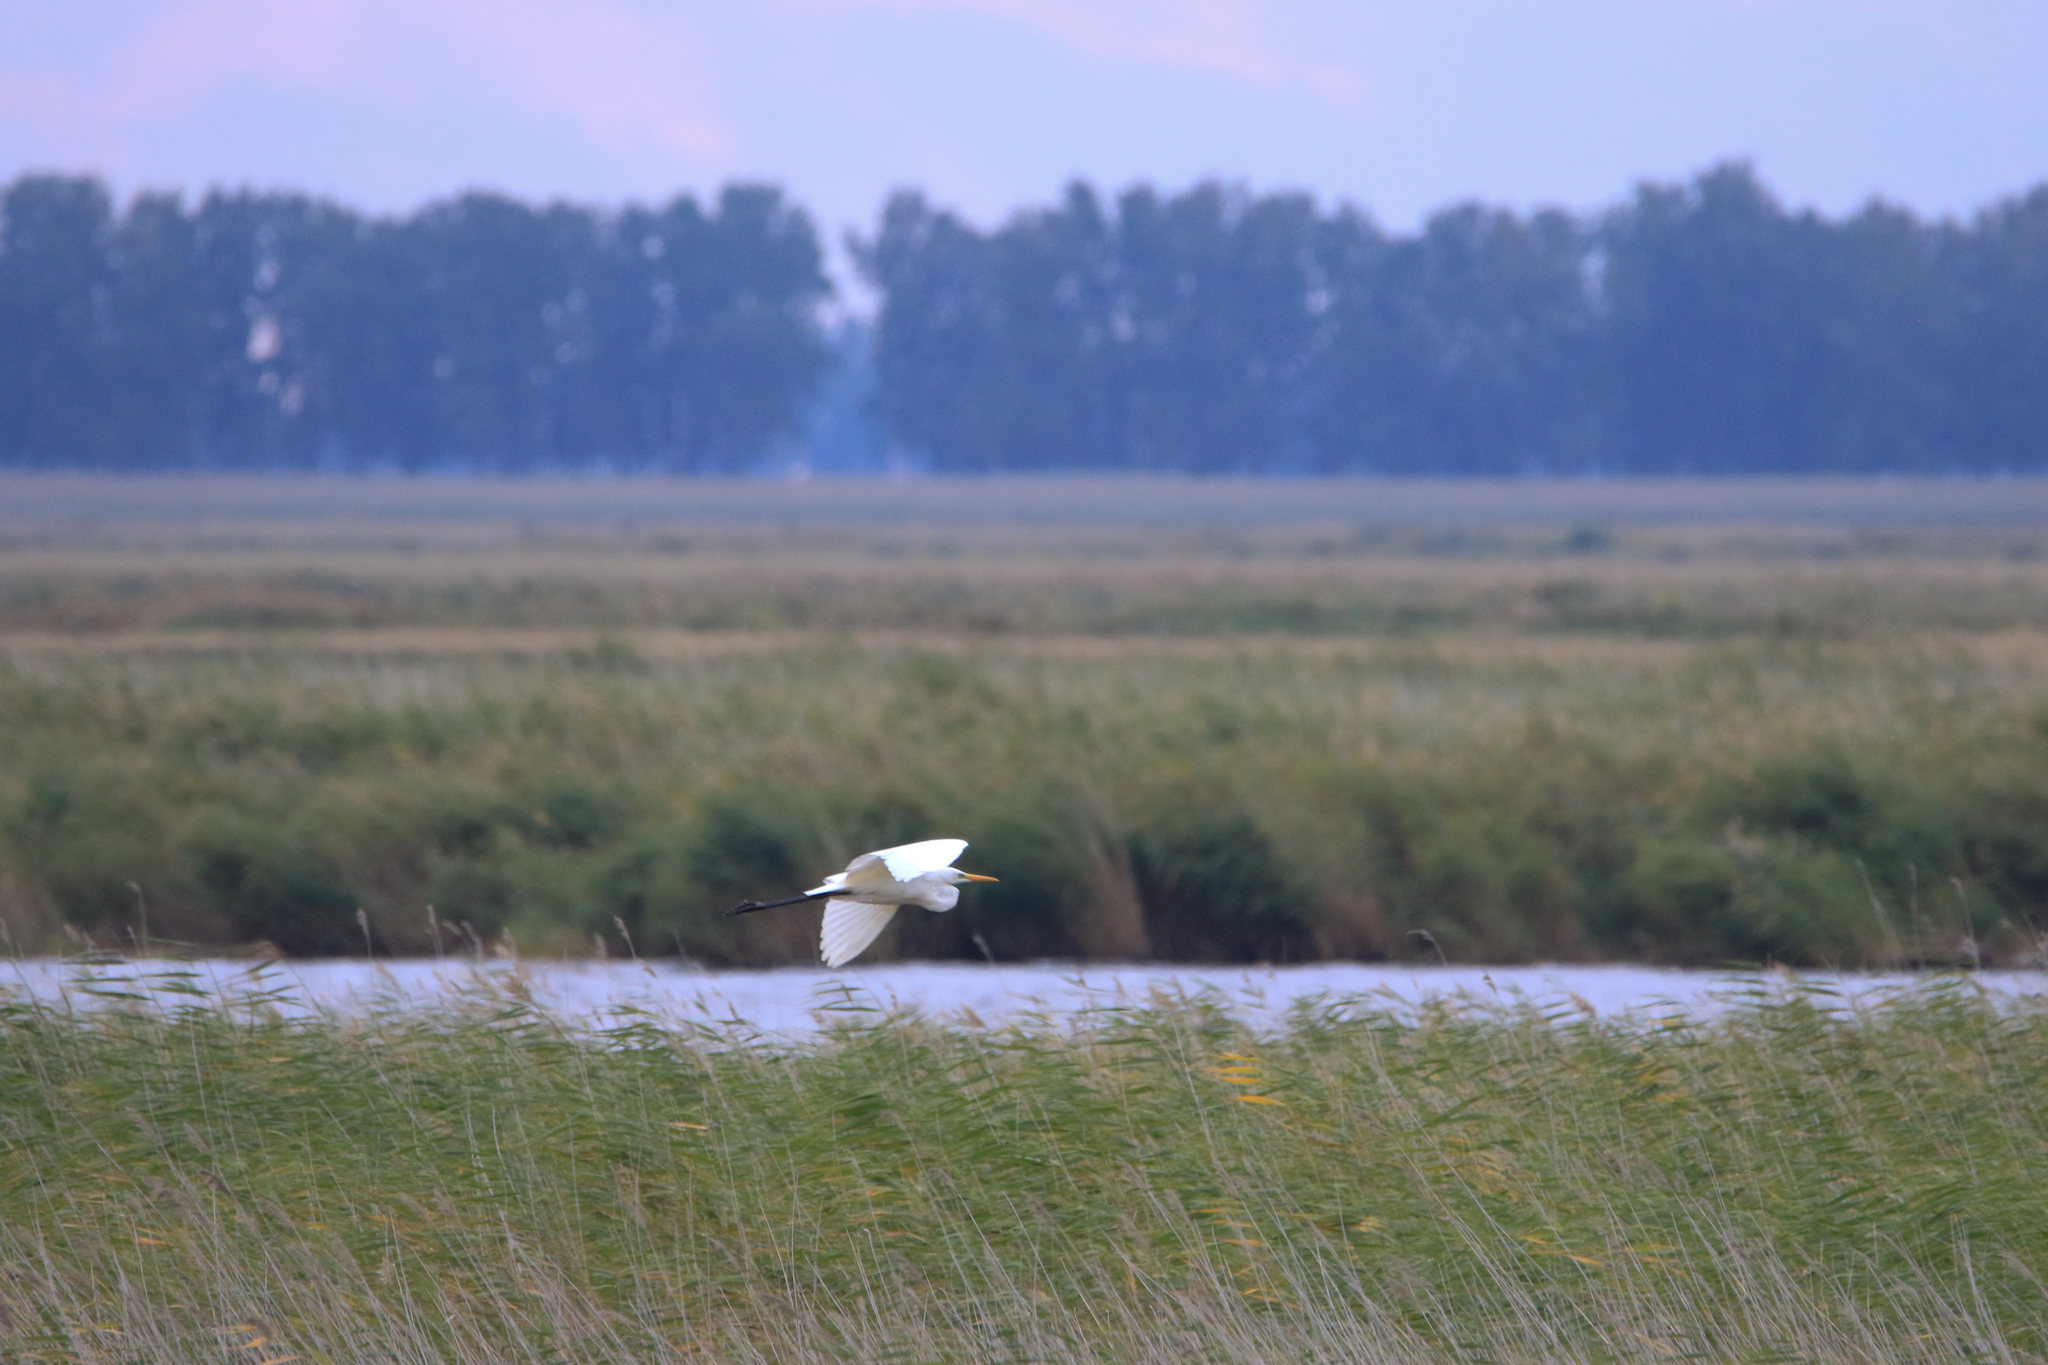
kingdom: Animalia
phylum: Chordata
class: Aves
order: Pelecaniformes
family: Ardeidae
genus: Ardea
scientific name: Ardea alba
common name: Great egret
